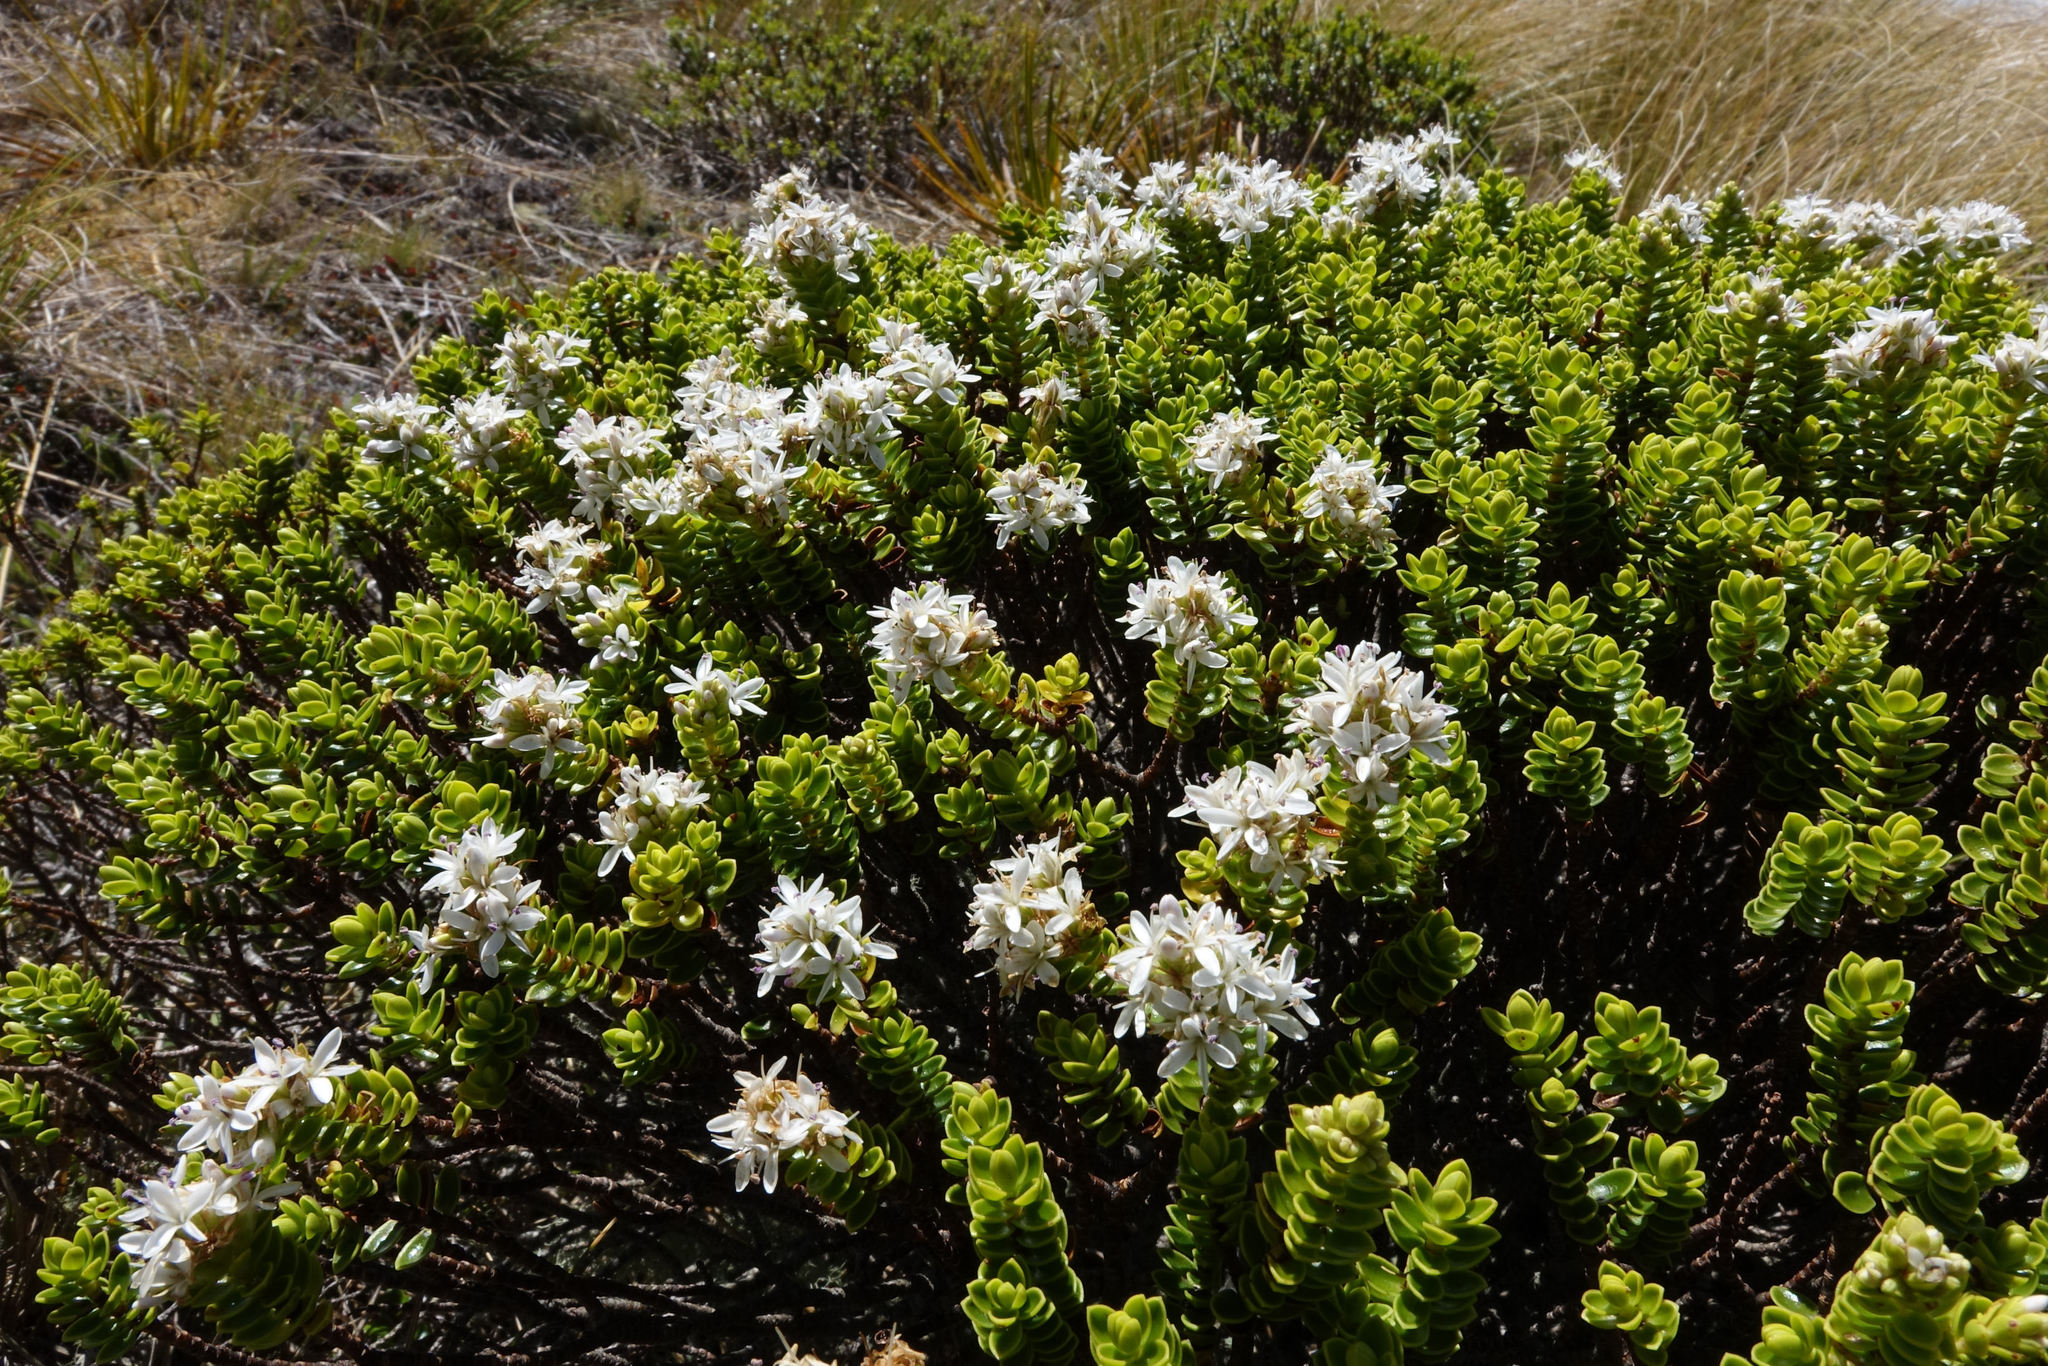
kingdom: Plantae
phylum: Tracheophyta
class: Magnoliopsida
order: Lamiales
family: Plantaginaceae
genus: Veronica
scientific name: Veronica odora
